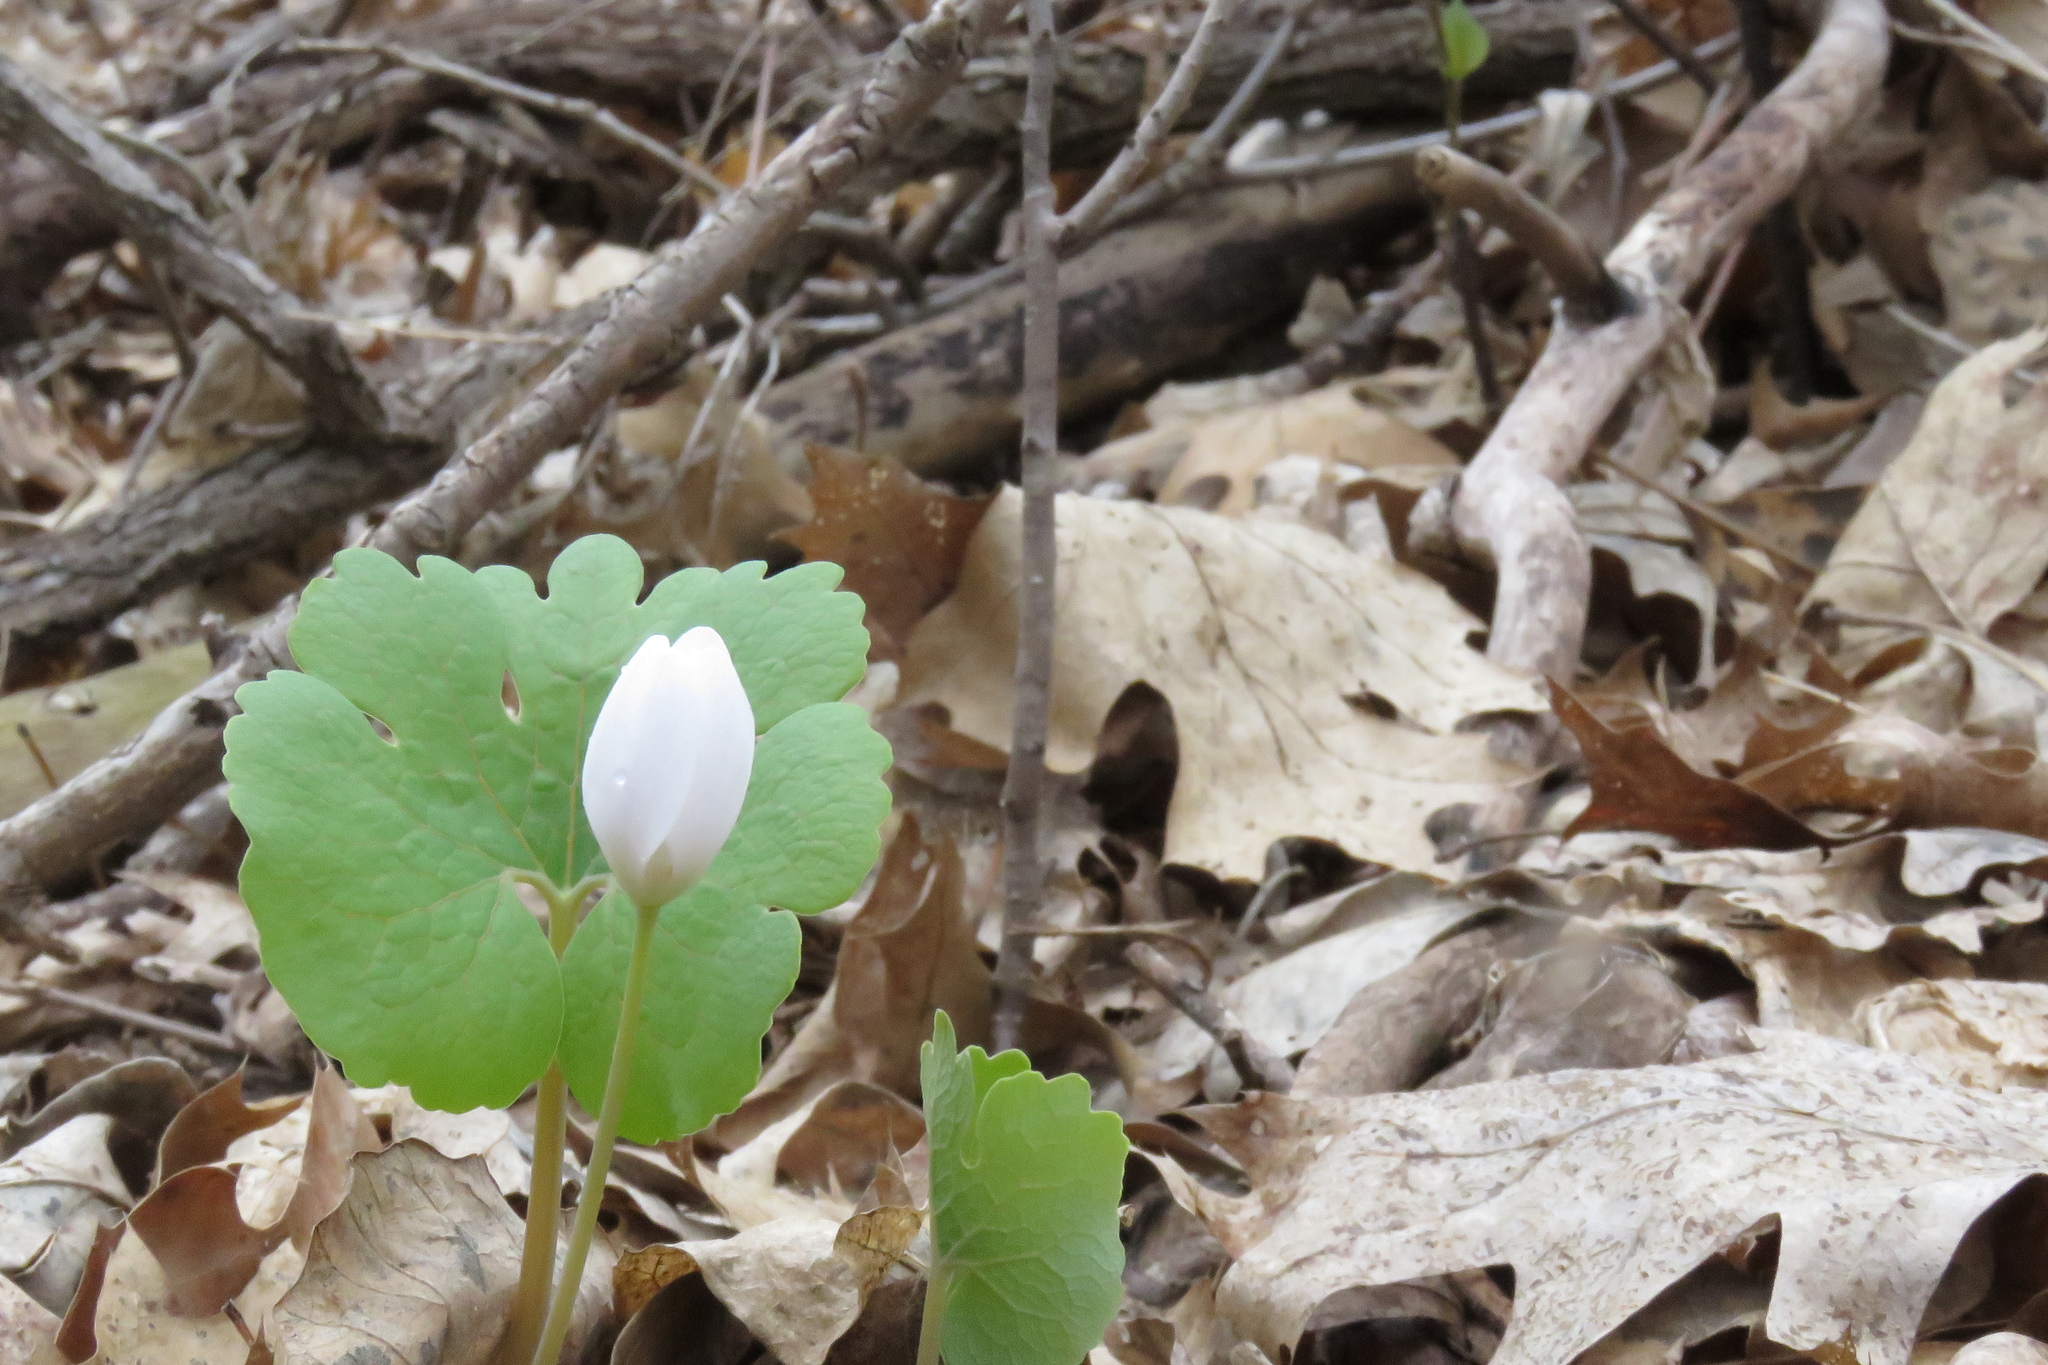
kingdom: Plantae
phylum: Tracheophyta
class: Magnoliopsida
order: Ranunculales
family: Papaveraceae
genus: Sanguinaria
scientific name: Sanguinaria canadensis
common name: Bloodroot
